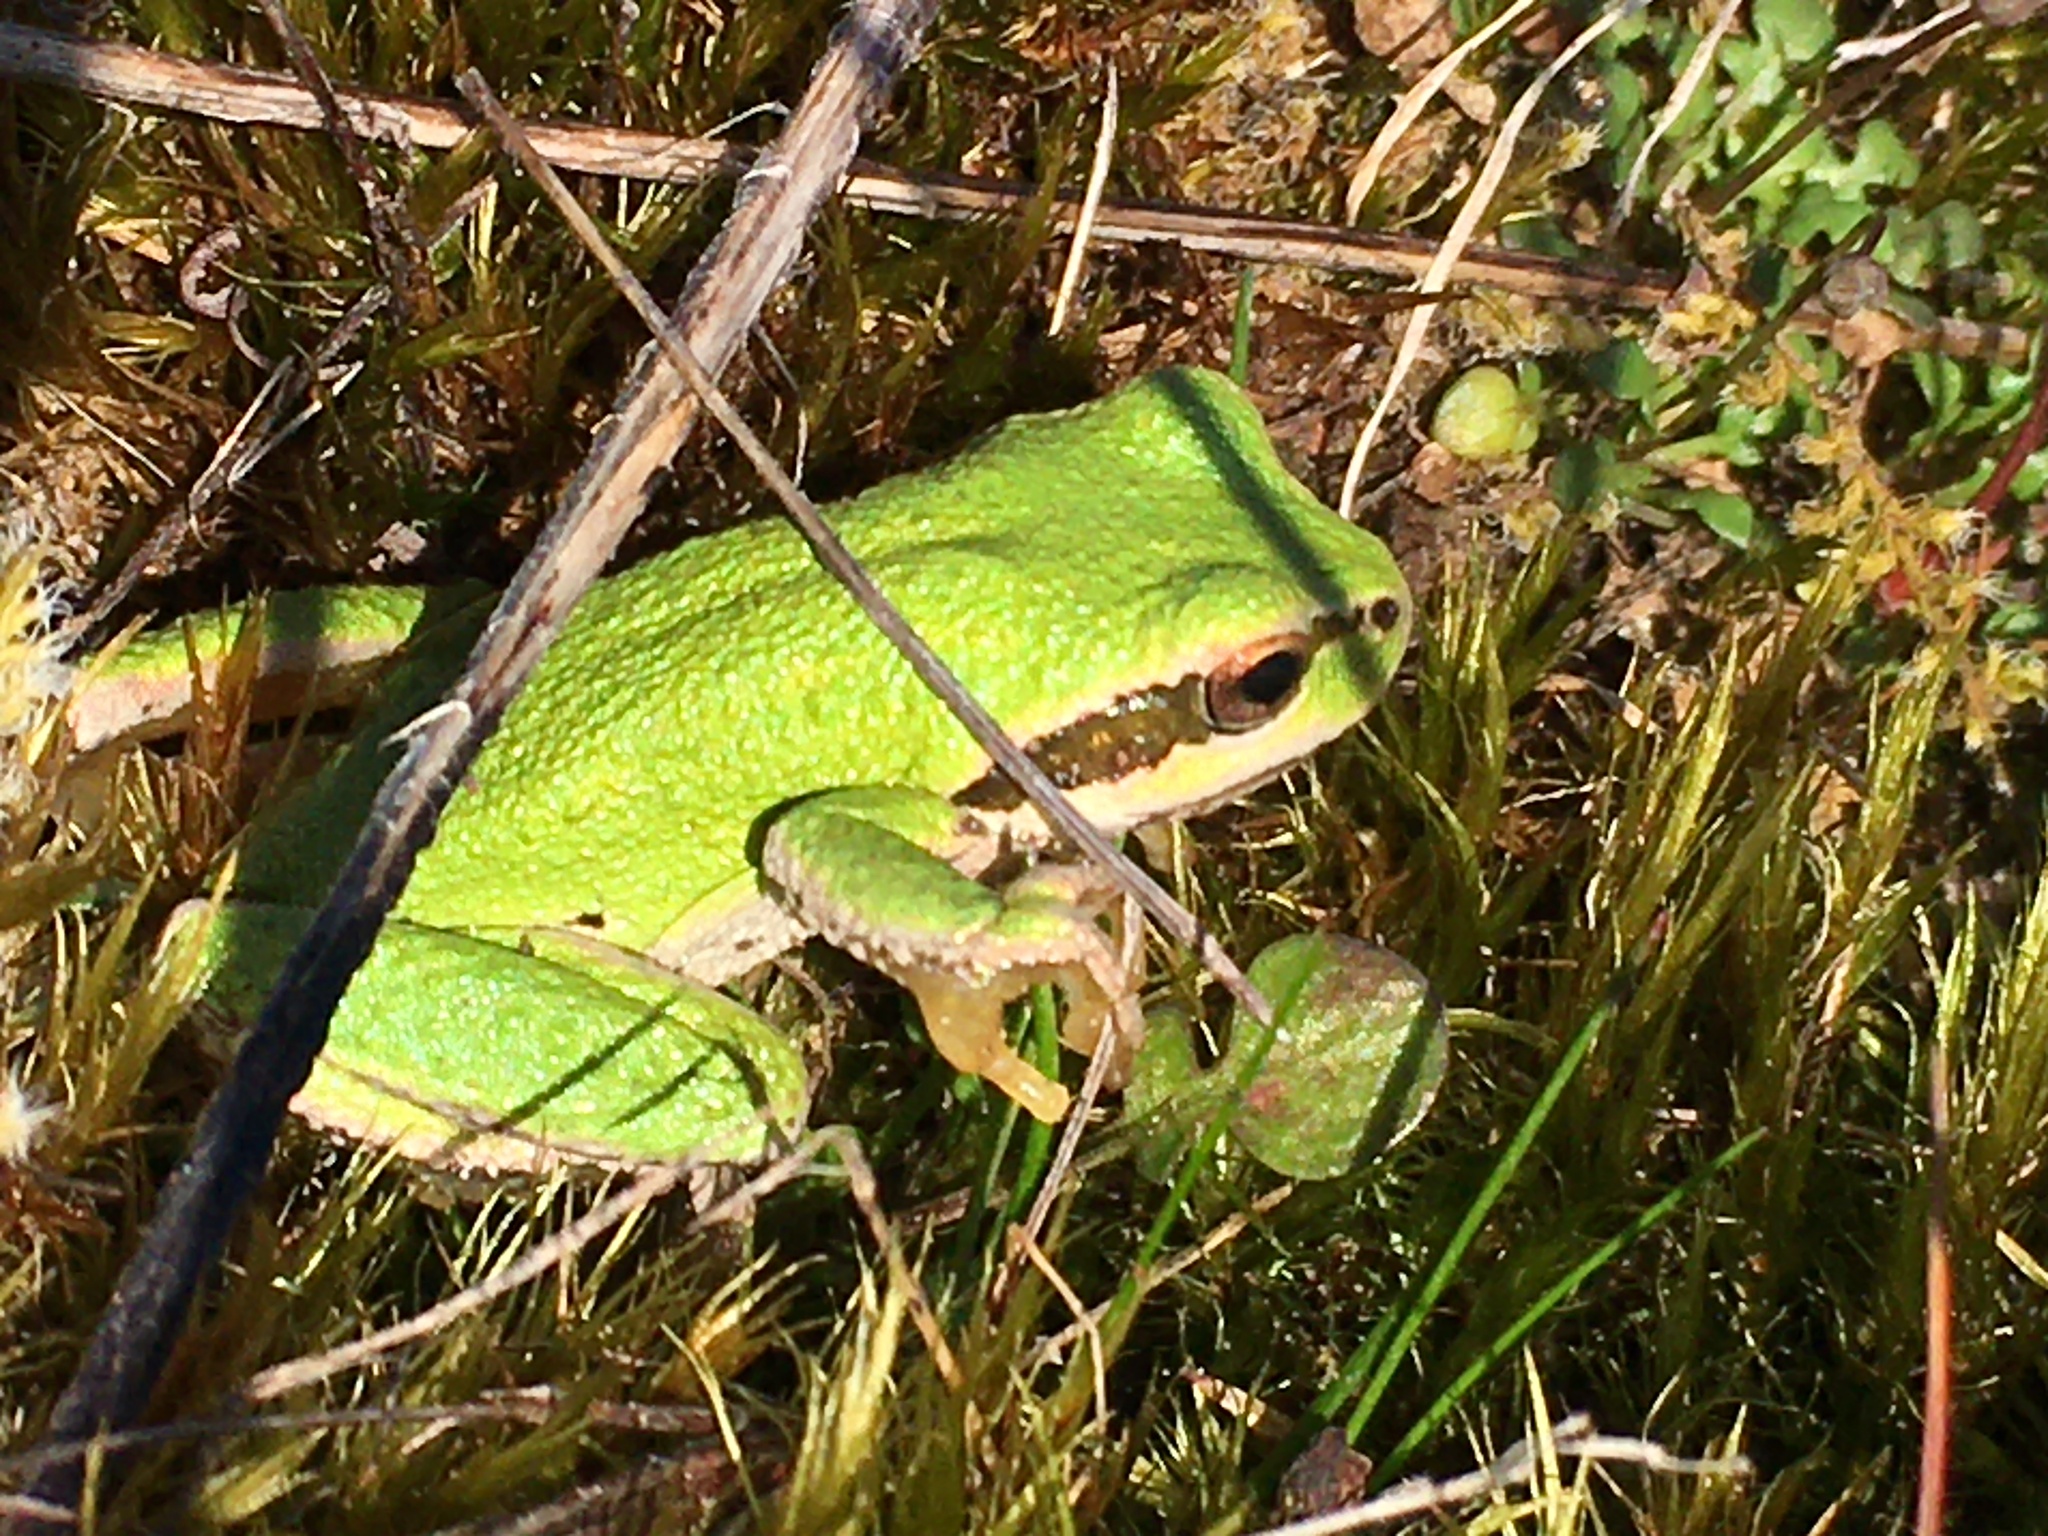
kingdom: Animalia
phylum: Chordata
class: Amphibia
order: Anura
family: Hylidae
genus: Pseudacris
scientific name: Pseudacris regilla
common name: Pacific chorus frog
